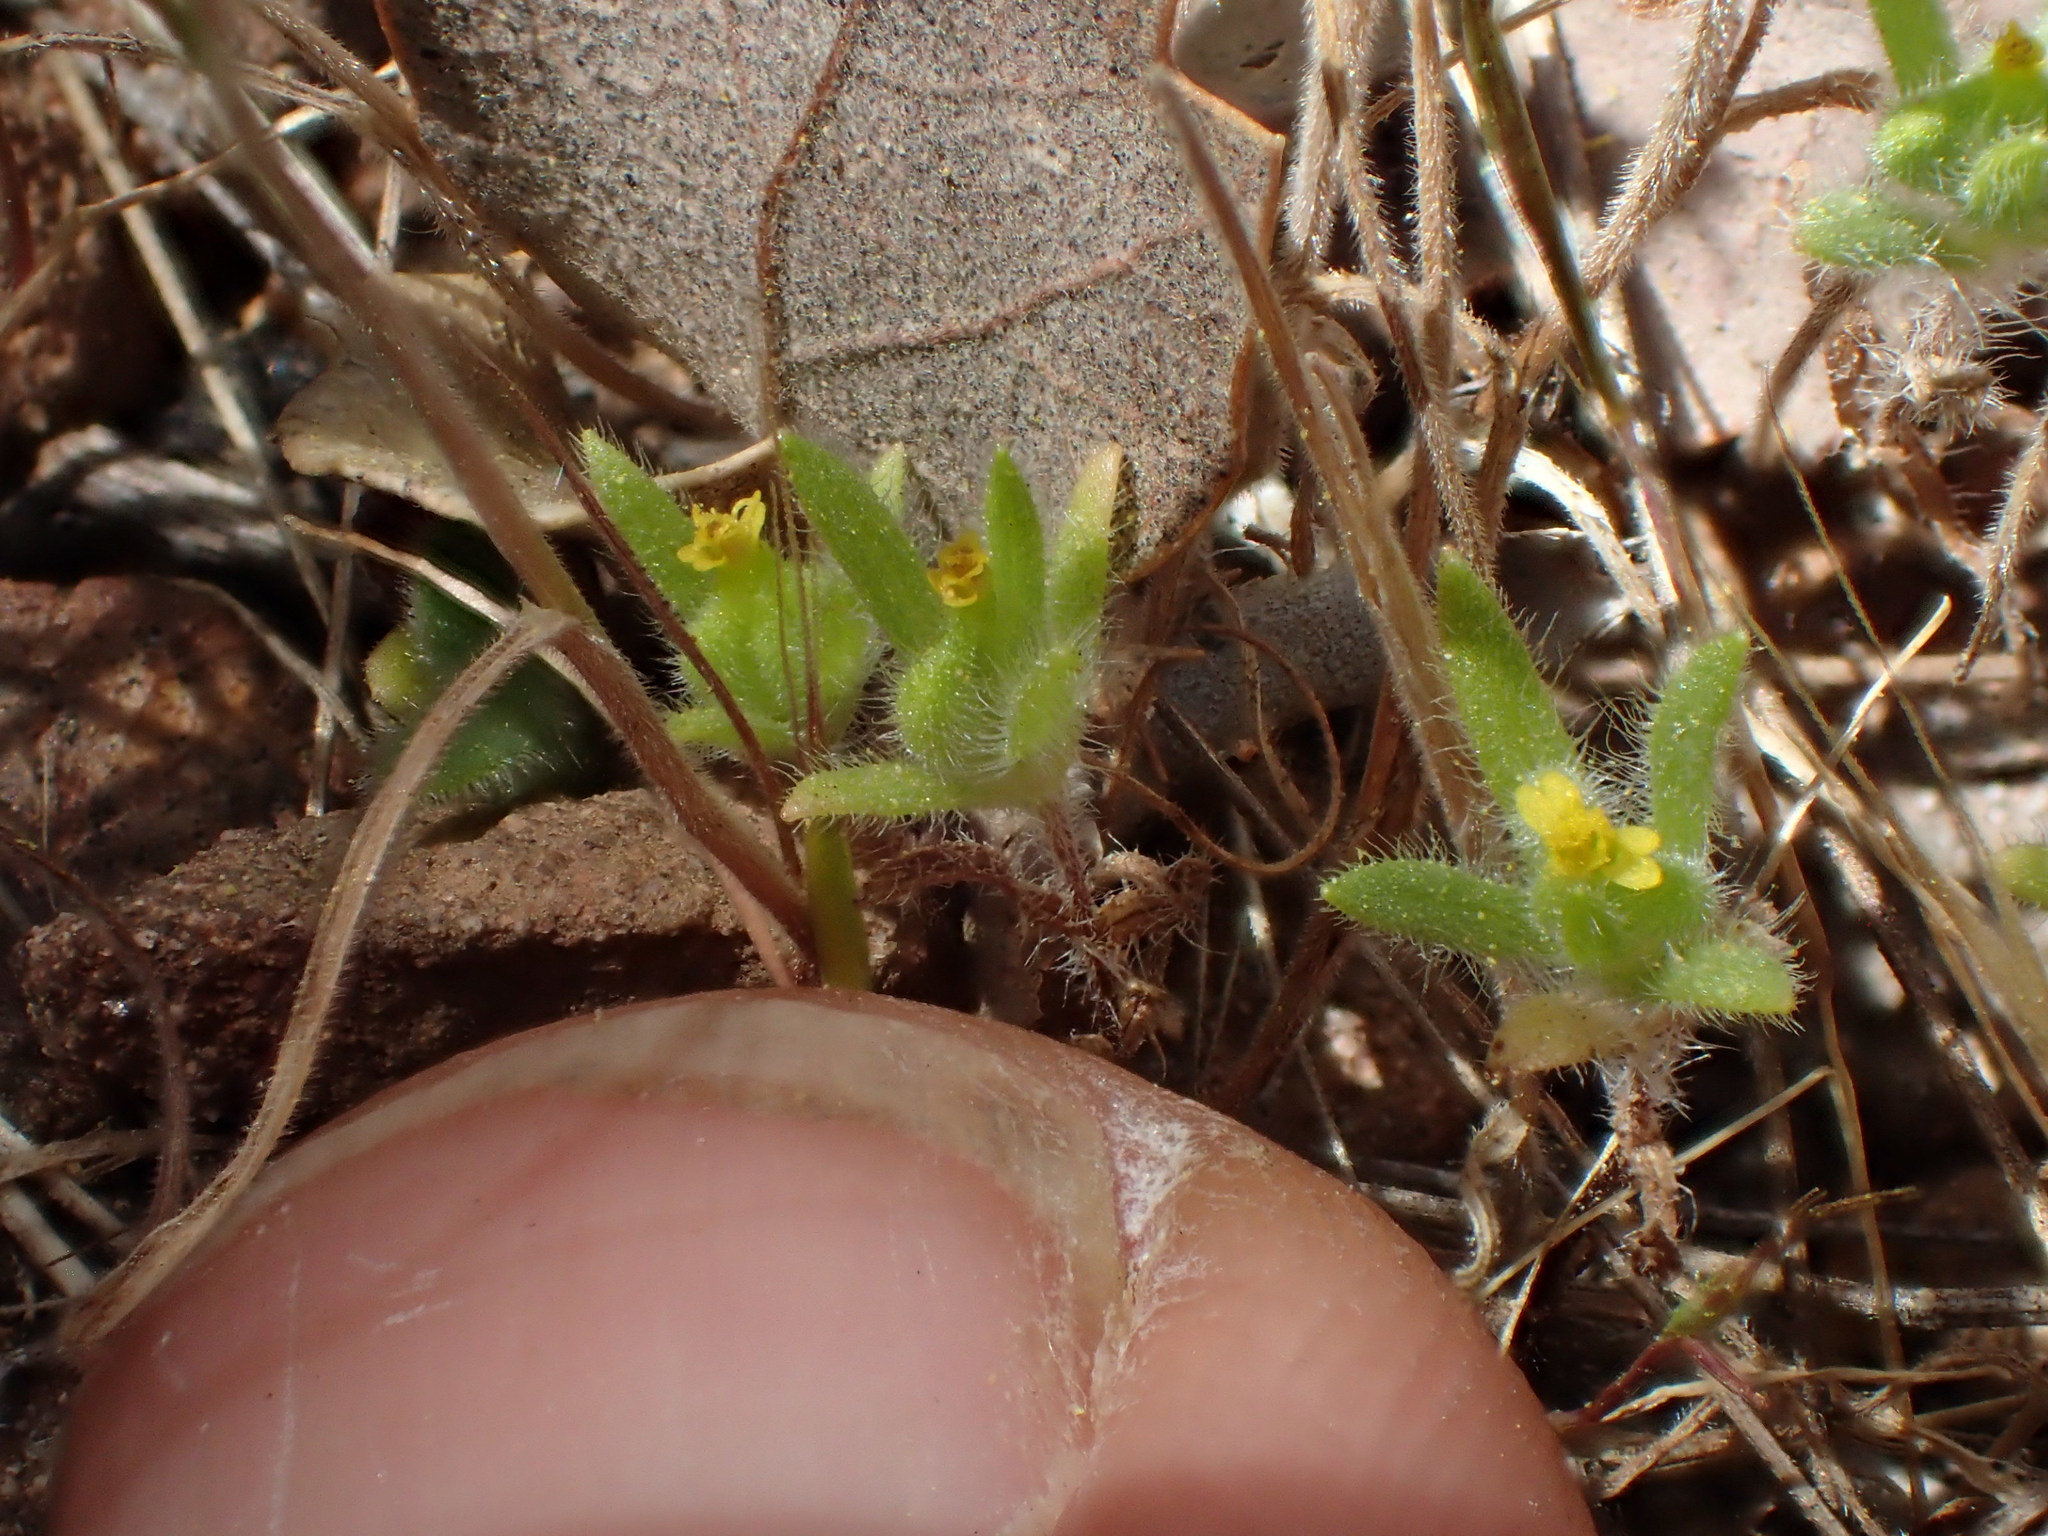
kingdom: Plantae
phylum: Tracheophyta
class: Magnoliopsida
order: Asterales
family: Asteraceae
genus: Madia
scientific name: Madia exigua
